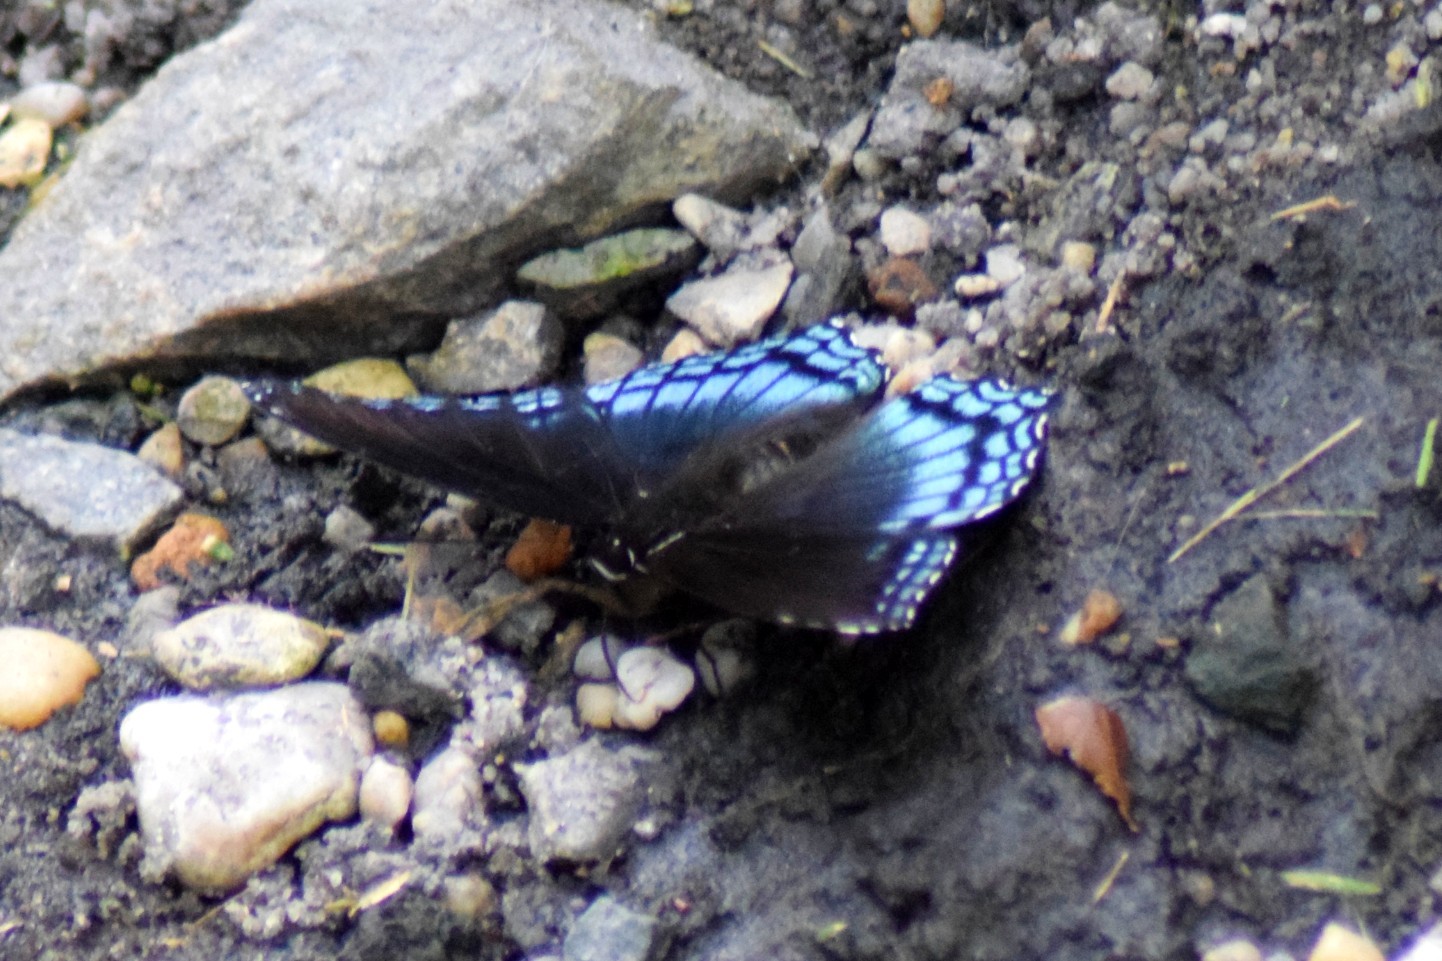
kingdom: Animalia
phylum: Arthropoda
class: Insecta
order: Lepidoptera
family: Nymphalidae
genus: Limenitis
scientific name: Limenitis astyanax
